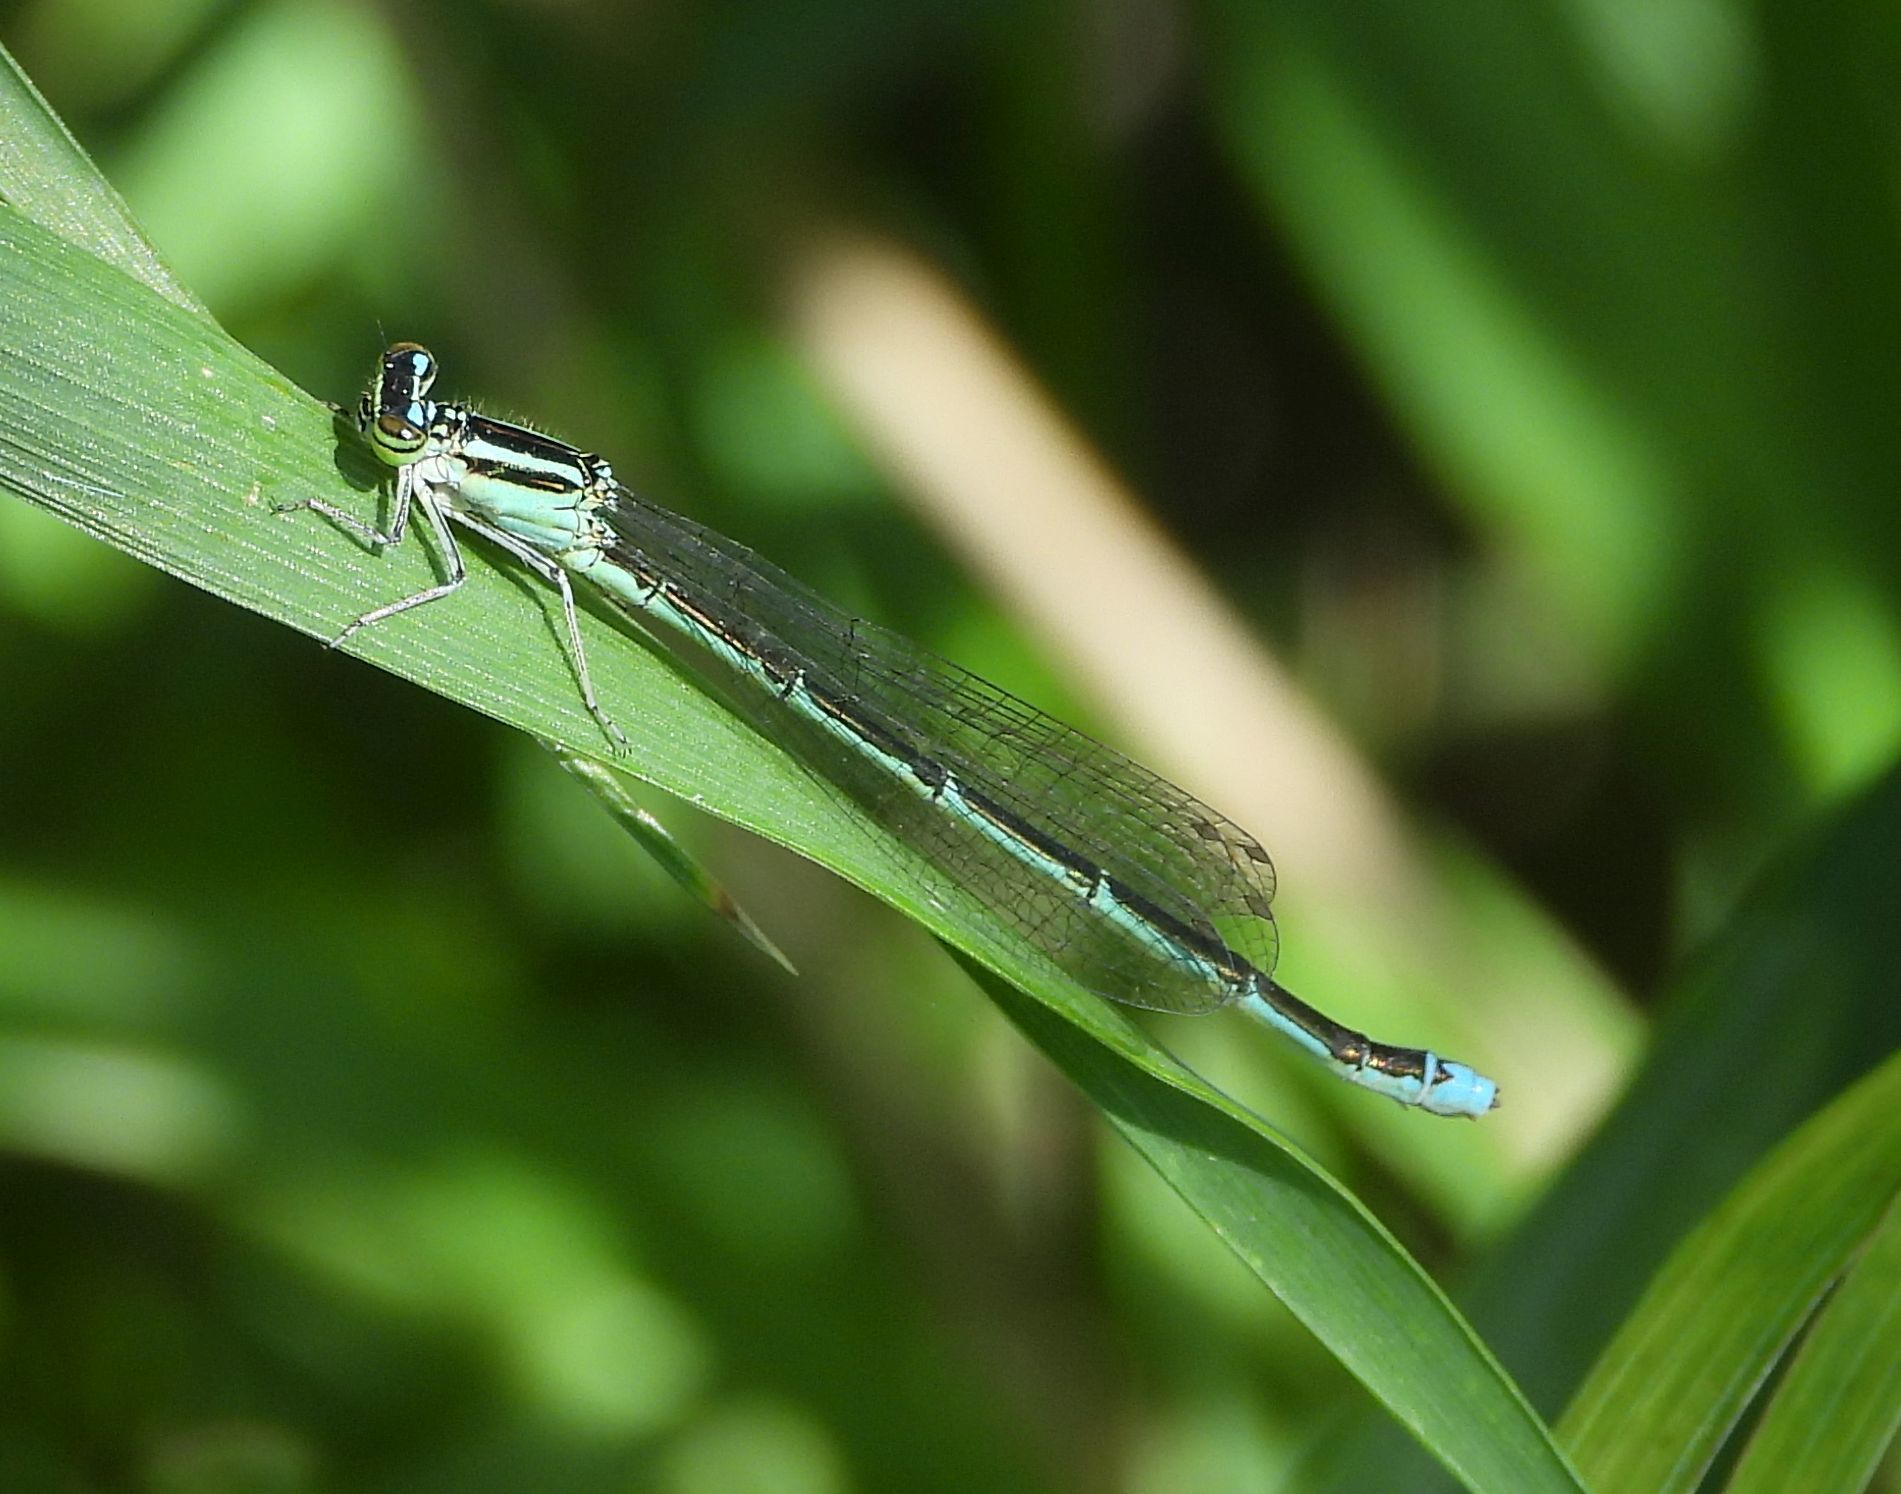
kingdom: Animalia
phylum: Arthropoda
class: Insecta
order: Odonata
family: Coenagrionidae
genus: Enallagma
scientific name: Enallagma exsulans
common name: Stream bluet
